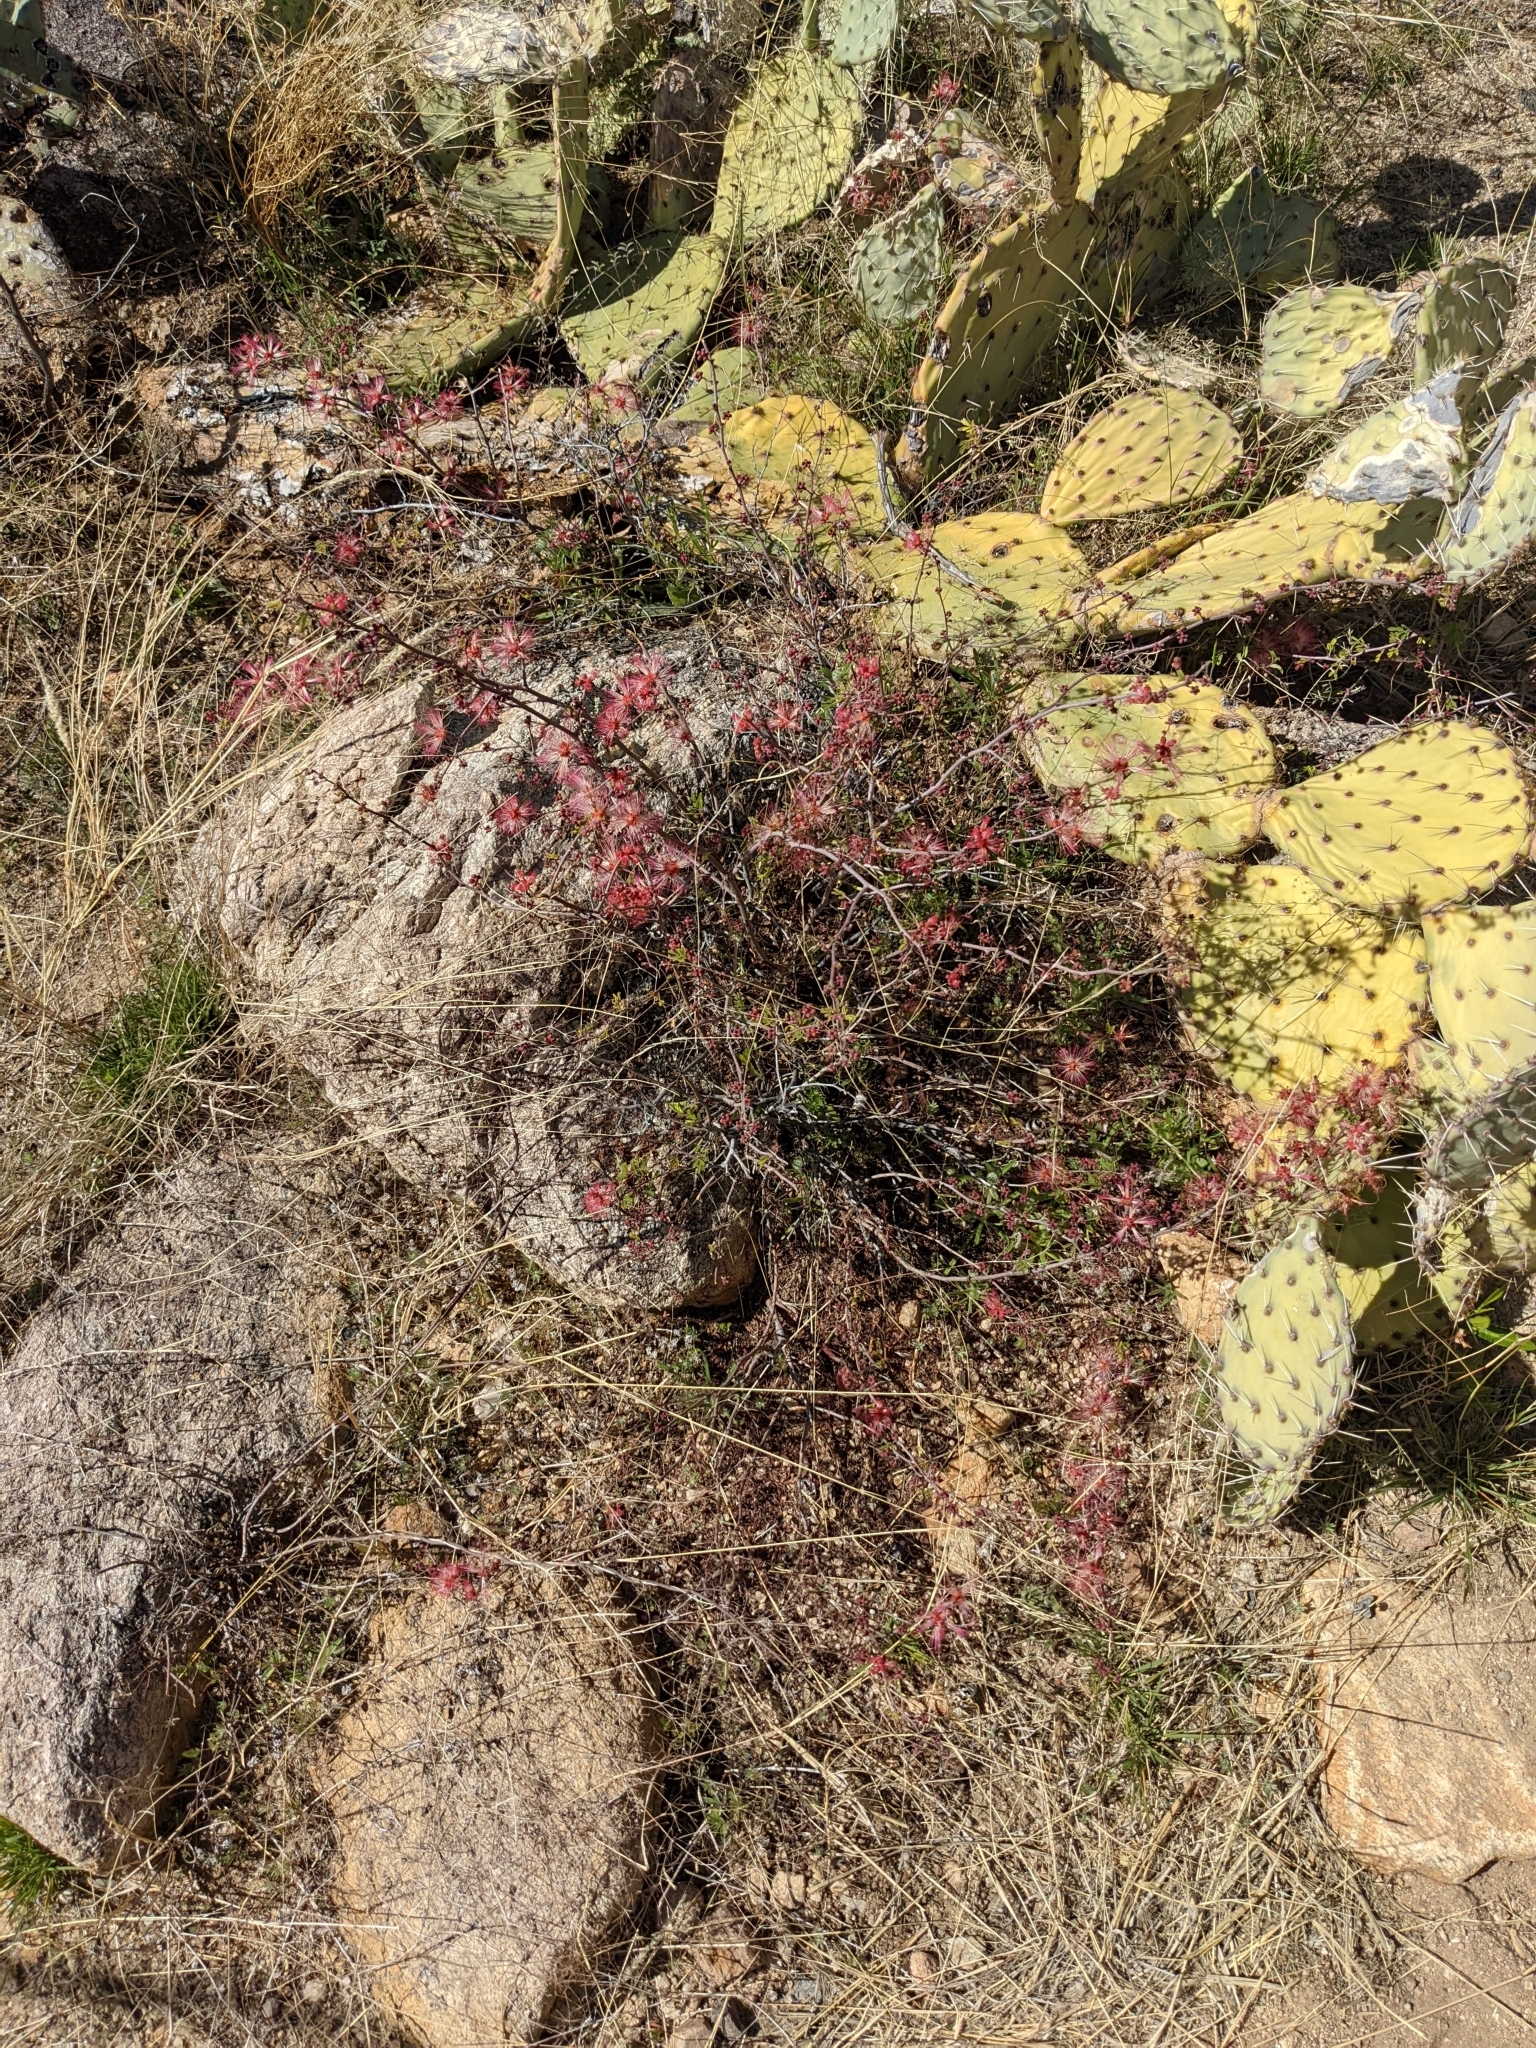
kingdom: Plantae
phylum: Tracheophyta
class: Magnoliopsida
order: Fabales
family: Fabaceae
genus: Calliandra
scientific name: Calliandra eriophylla
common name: Fairy-duster
